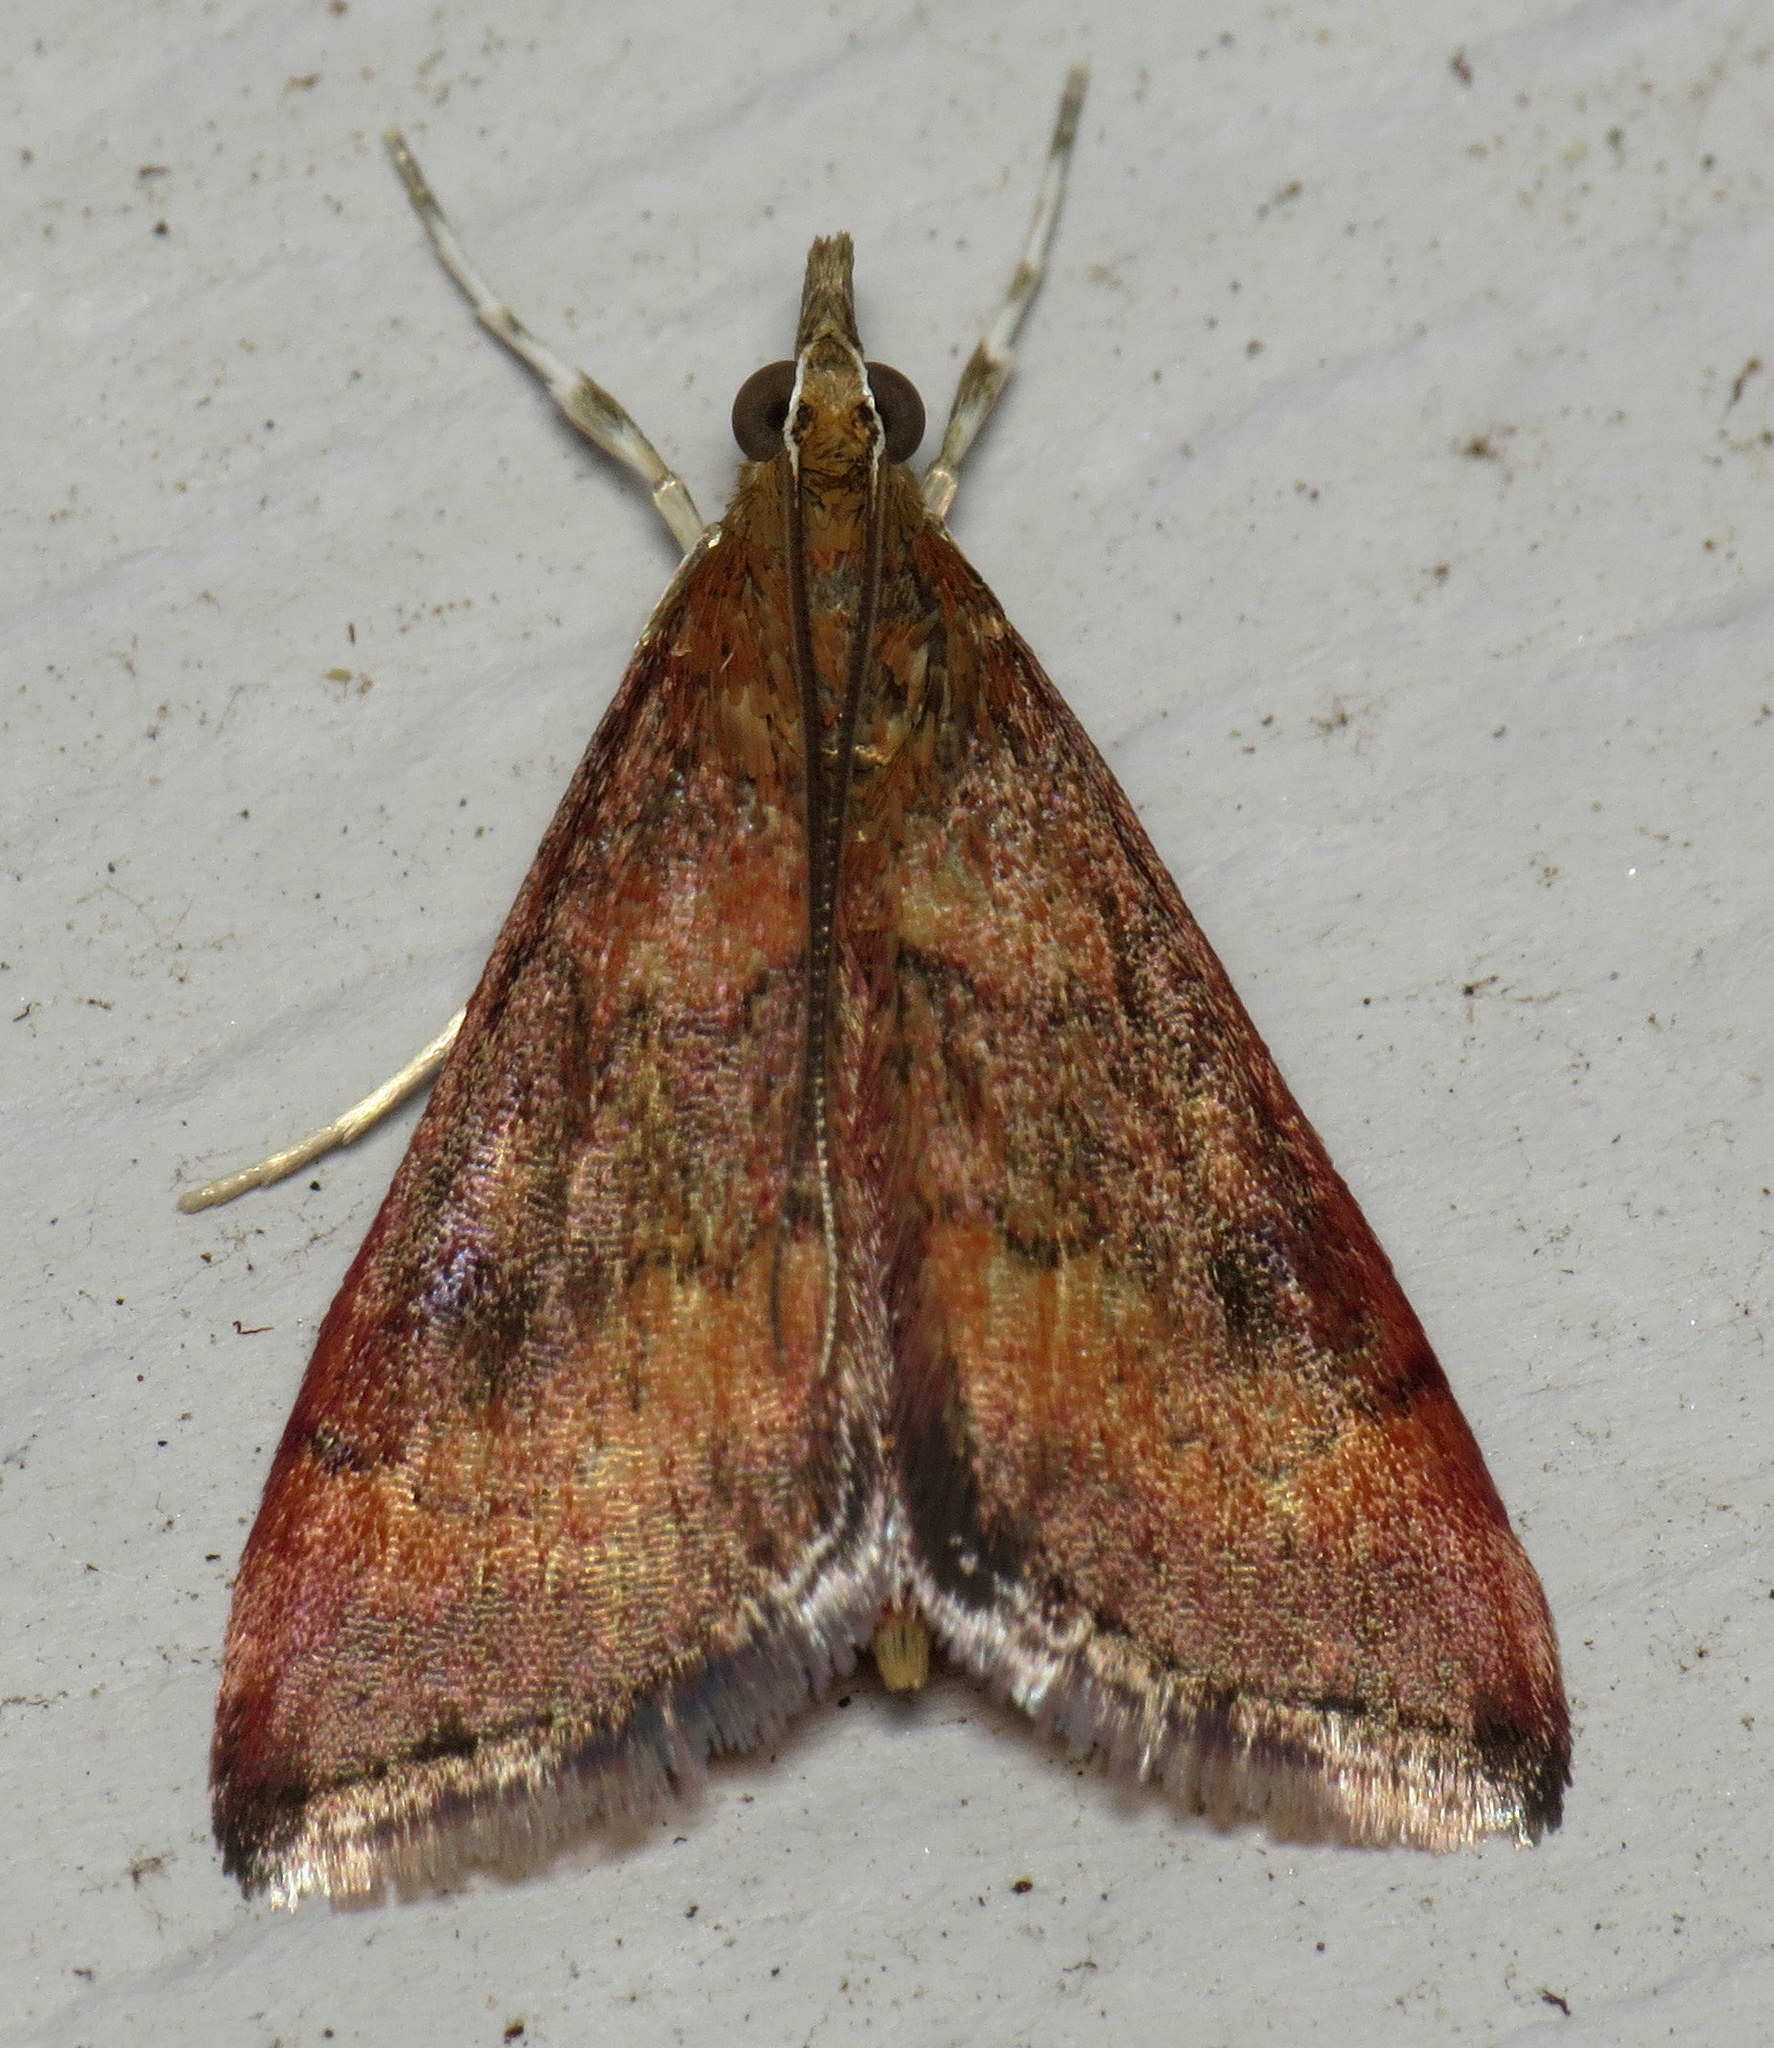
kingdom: Animalia
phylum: Arthropoda
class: Insecta
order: Lepidoptera
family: Crambidae
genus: Pyrausta
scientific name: Pyrausta rubricalis
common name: Variable reddish pyrausta
